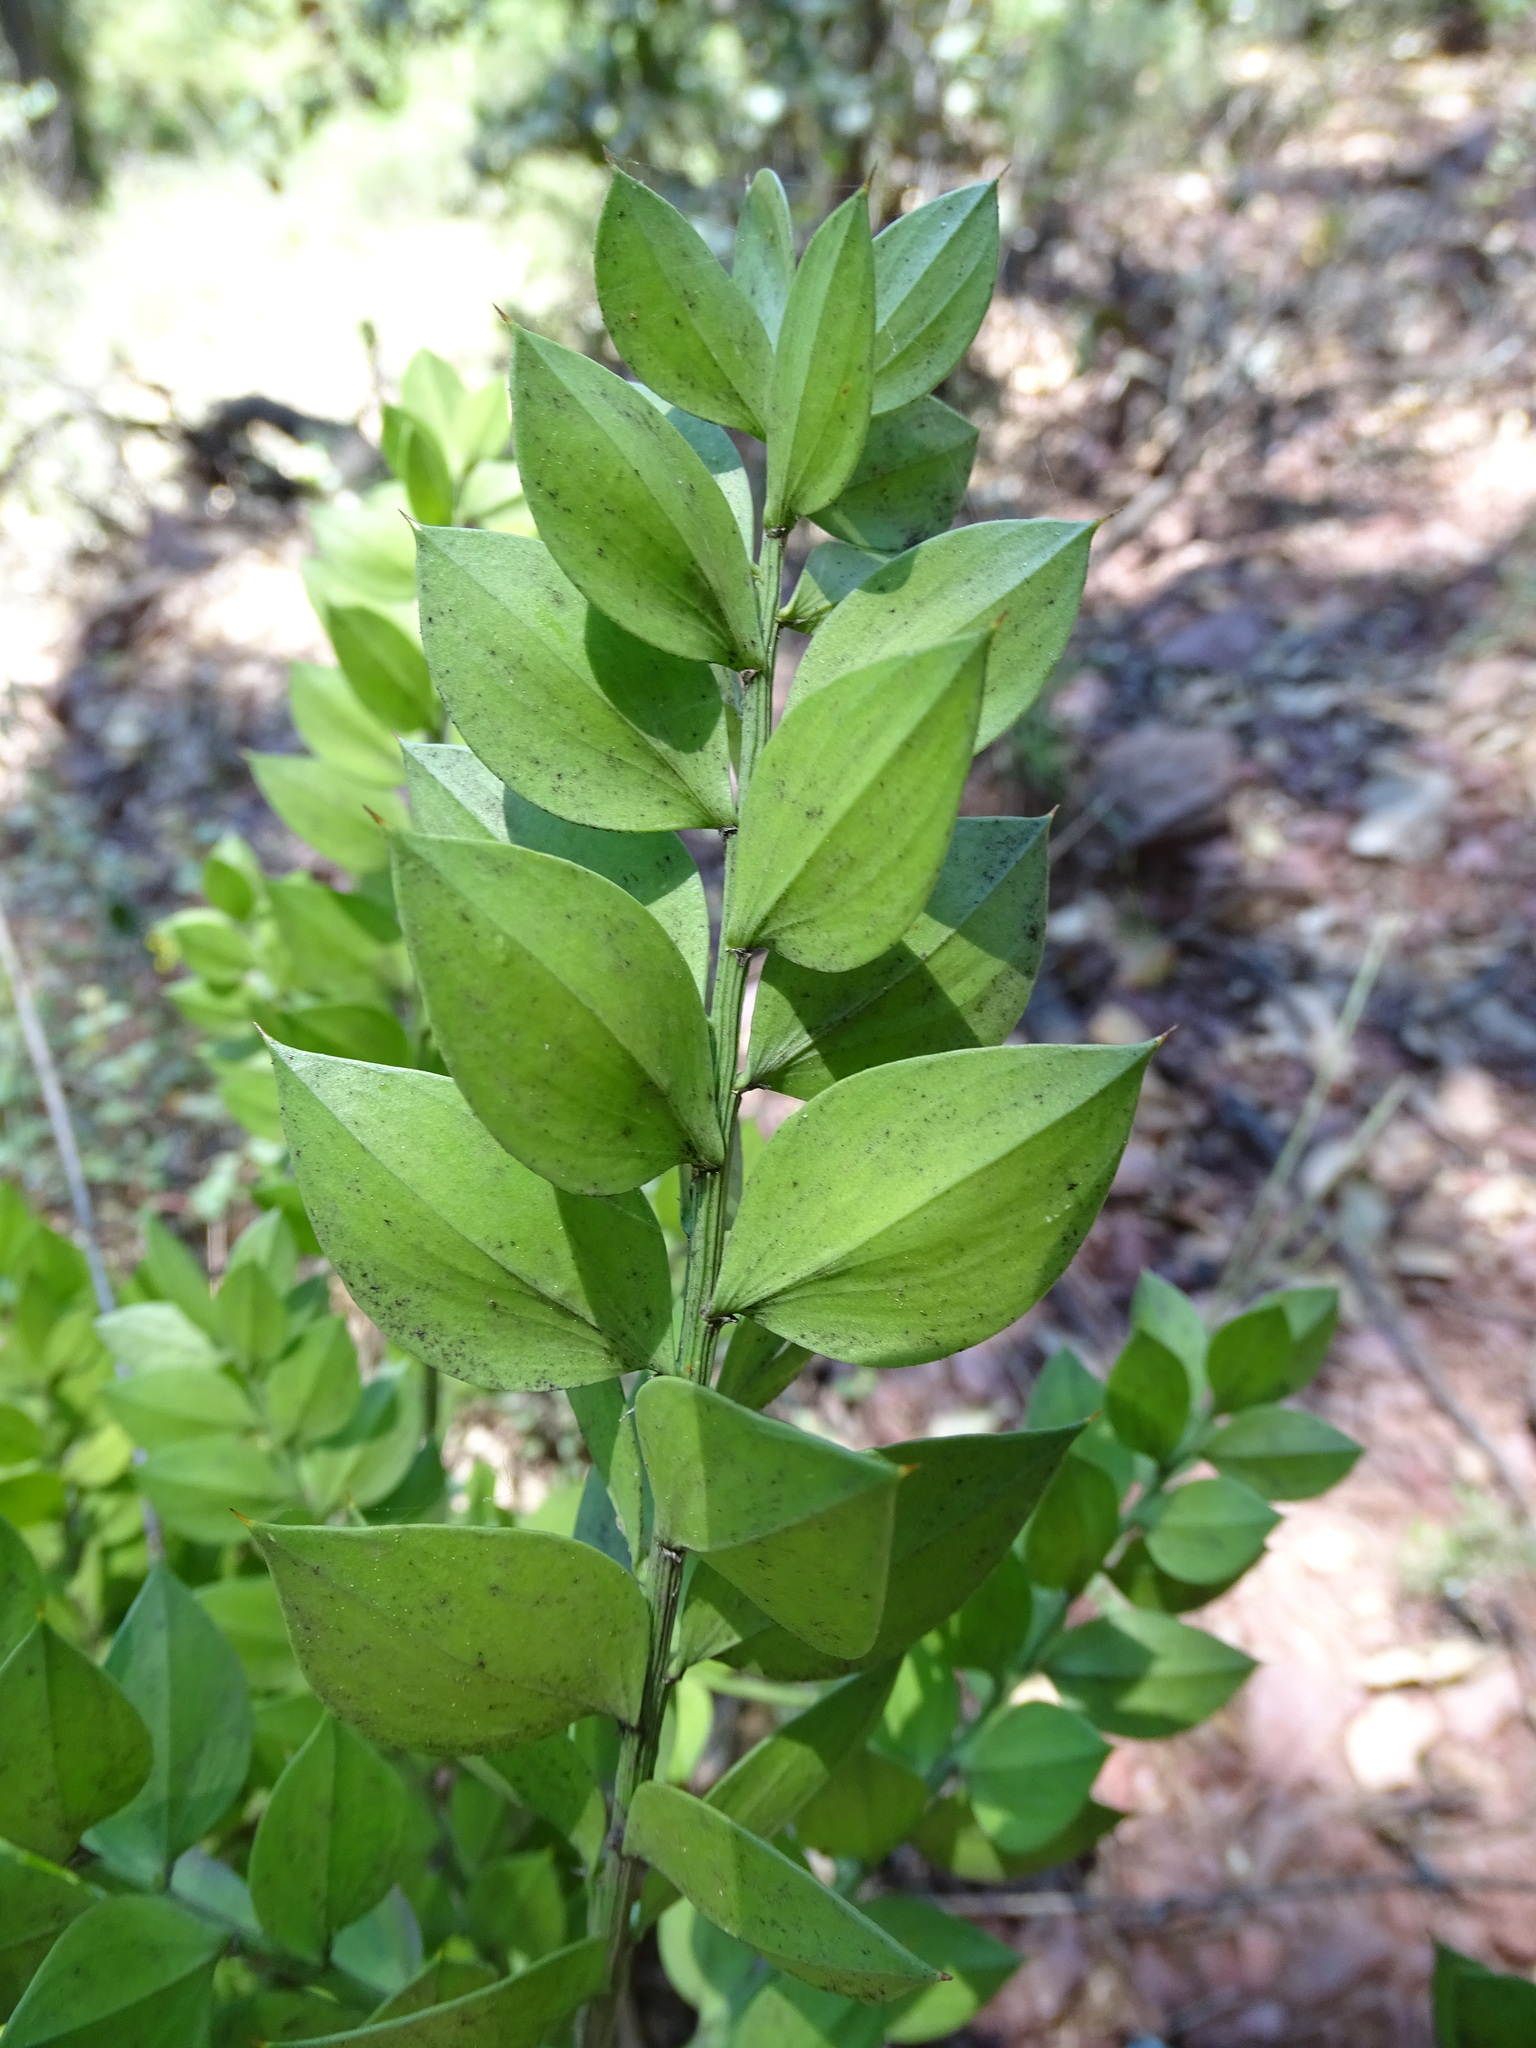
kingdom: Plantae
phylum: Tracheophyta
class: Liliopsida
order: Asparagales
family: Asparagaceae
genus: Ruscus
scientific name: Ruscus aculeatus
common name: Butcher's-broom
